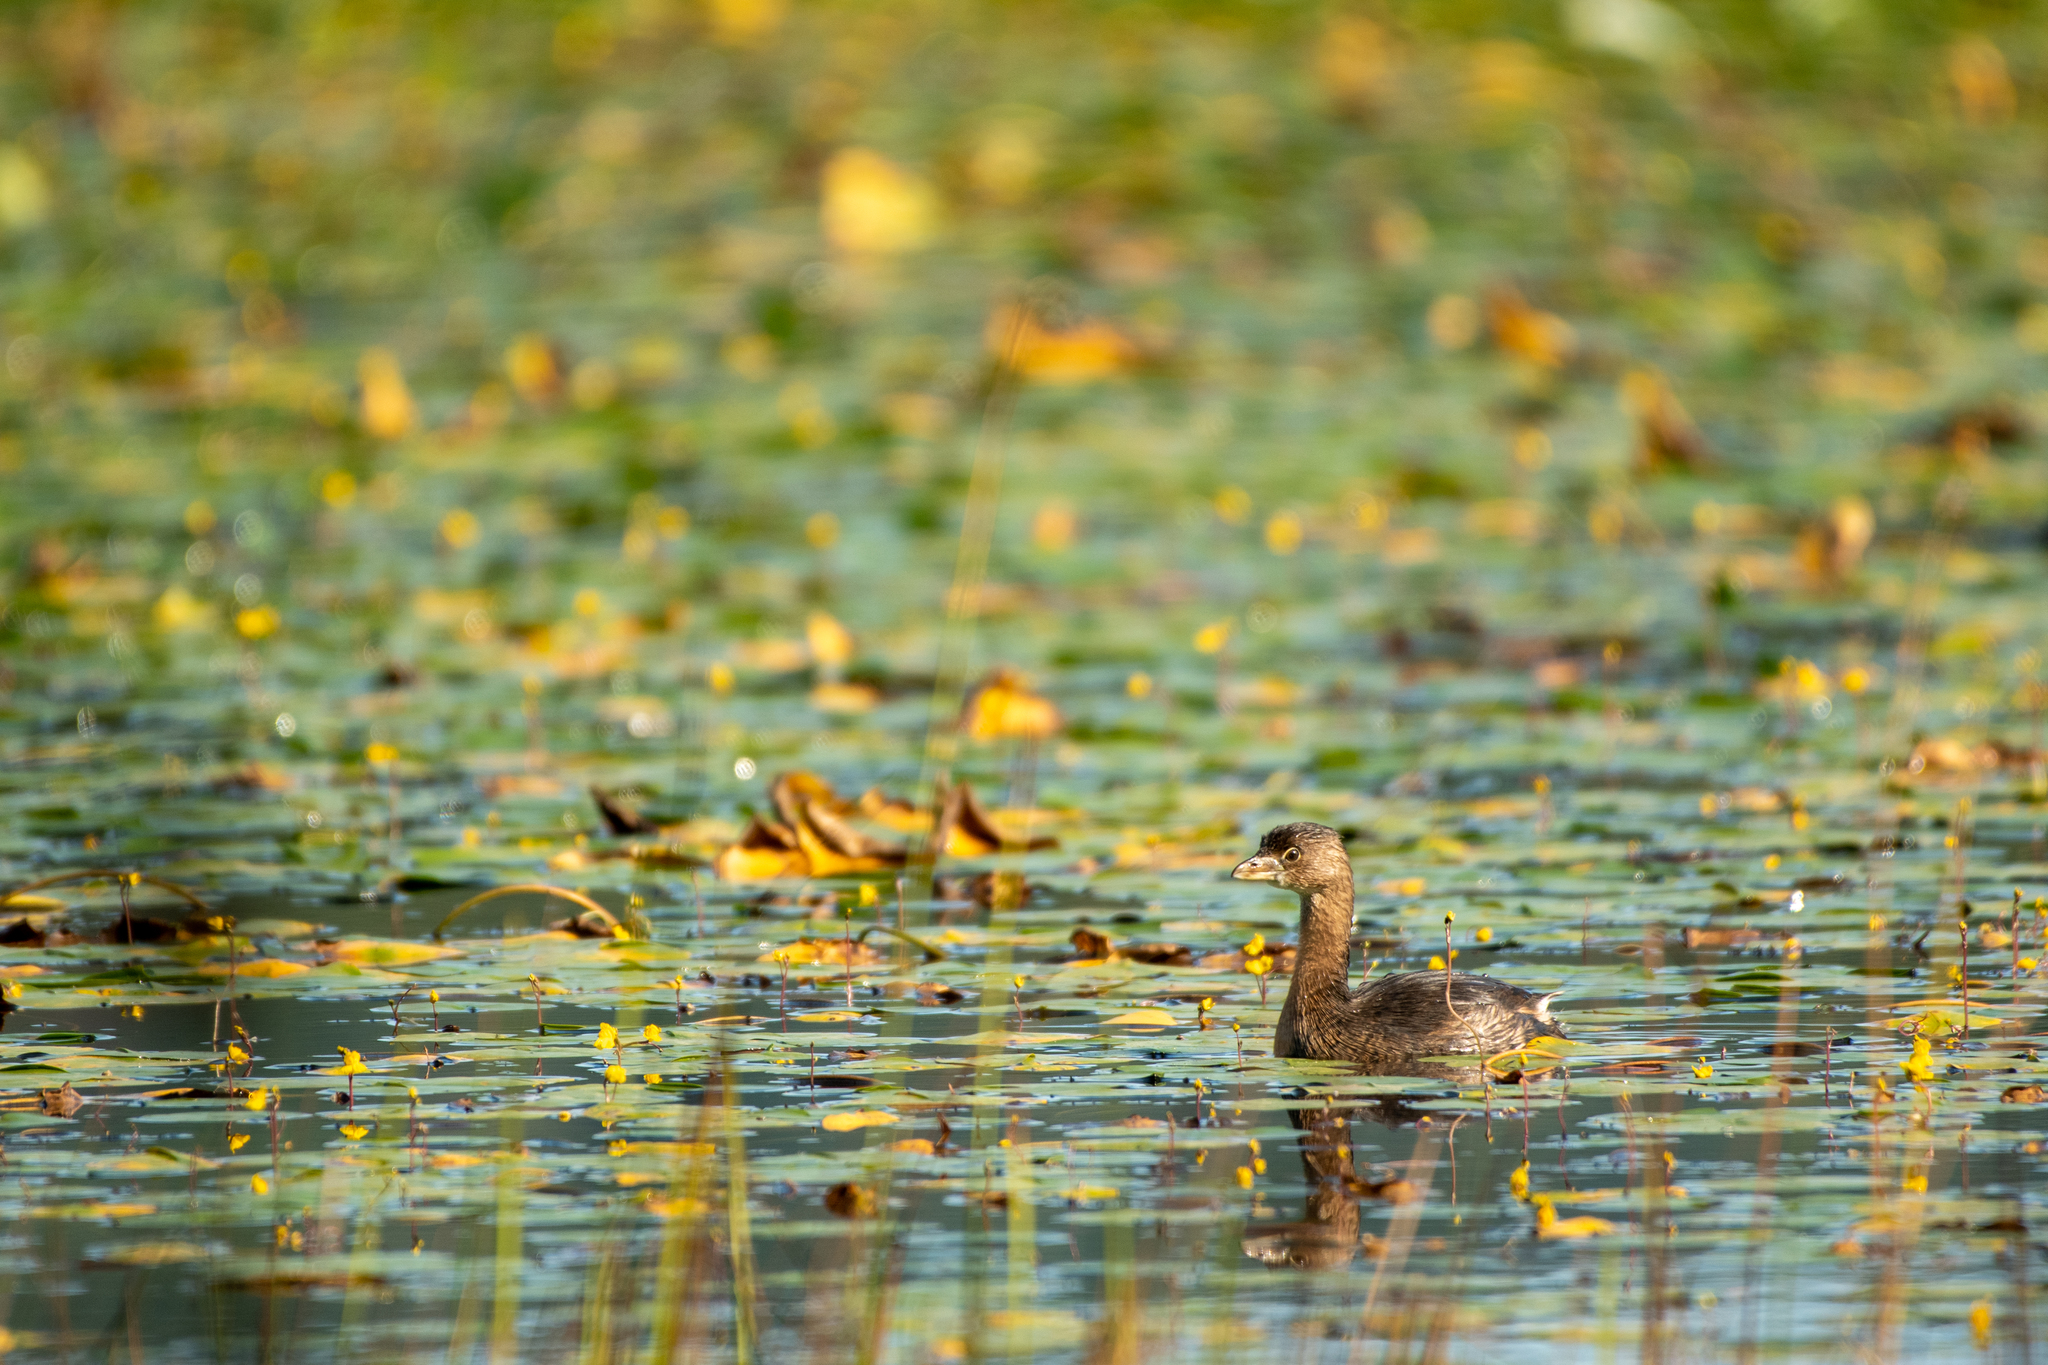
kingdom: Animalia
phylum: Chordata
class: Aves
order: Podicipediformes
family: Podicipedidae
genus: Podilymbus
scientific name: Podilymbus podiceps
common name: Pied-billed grebe
